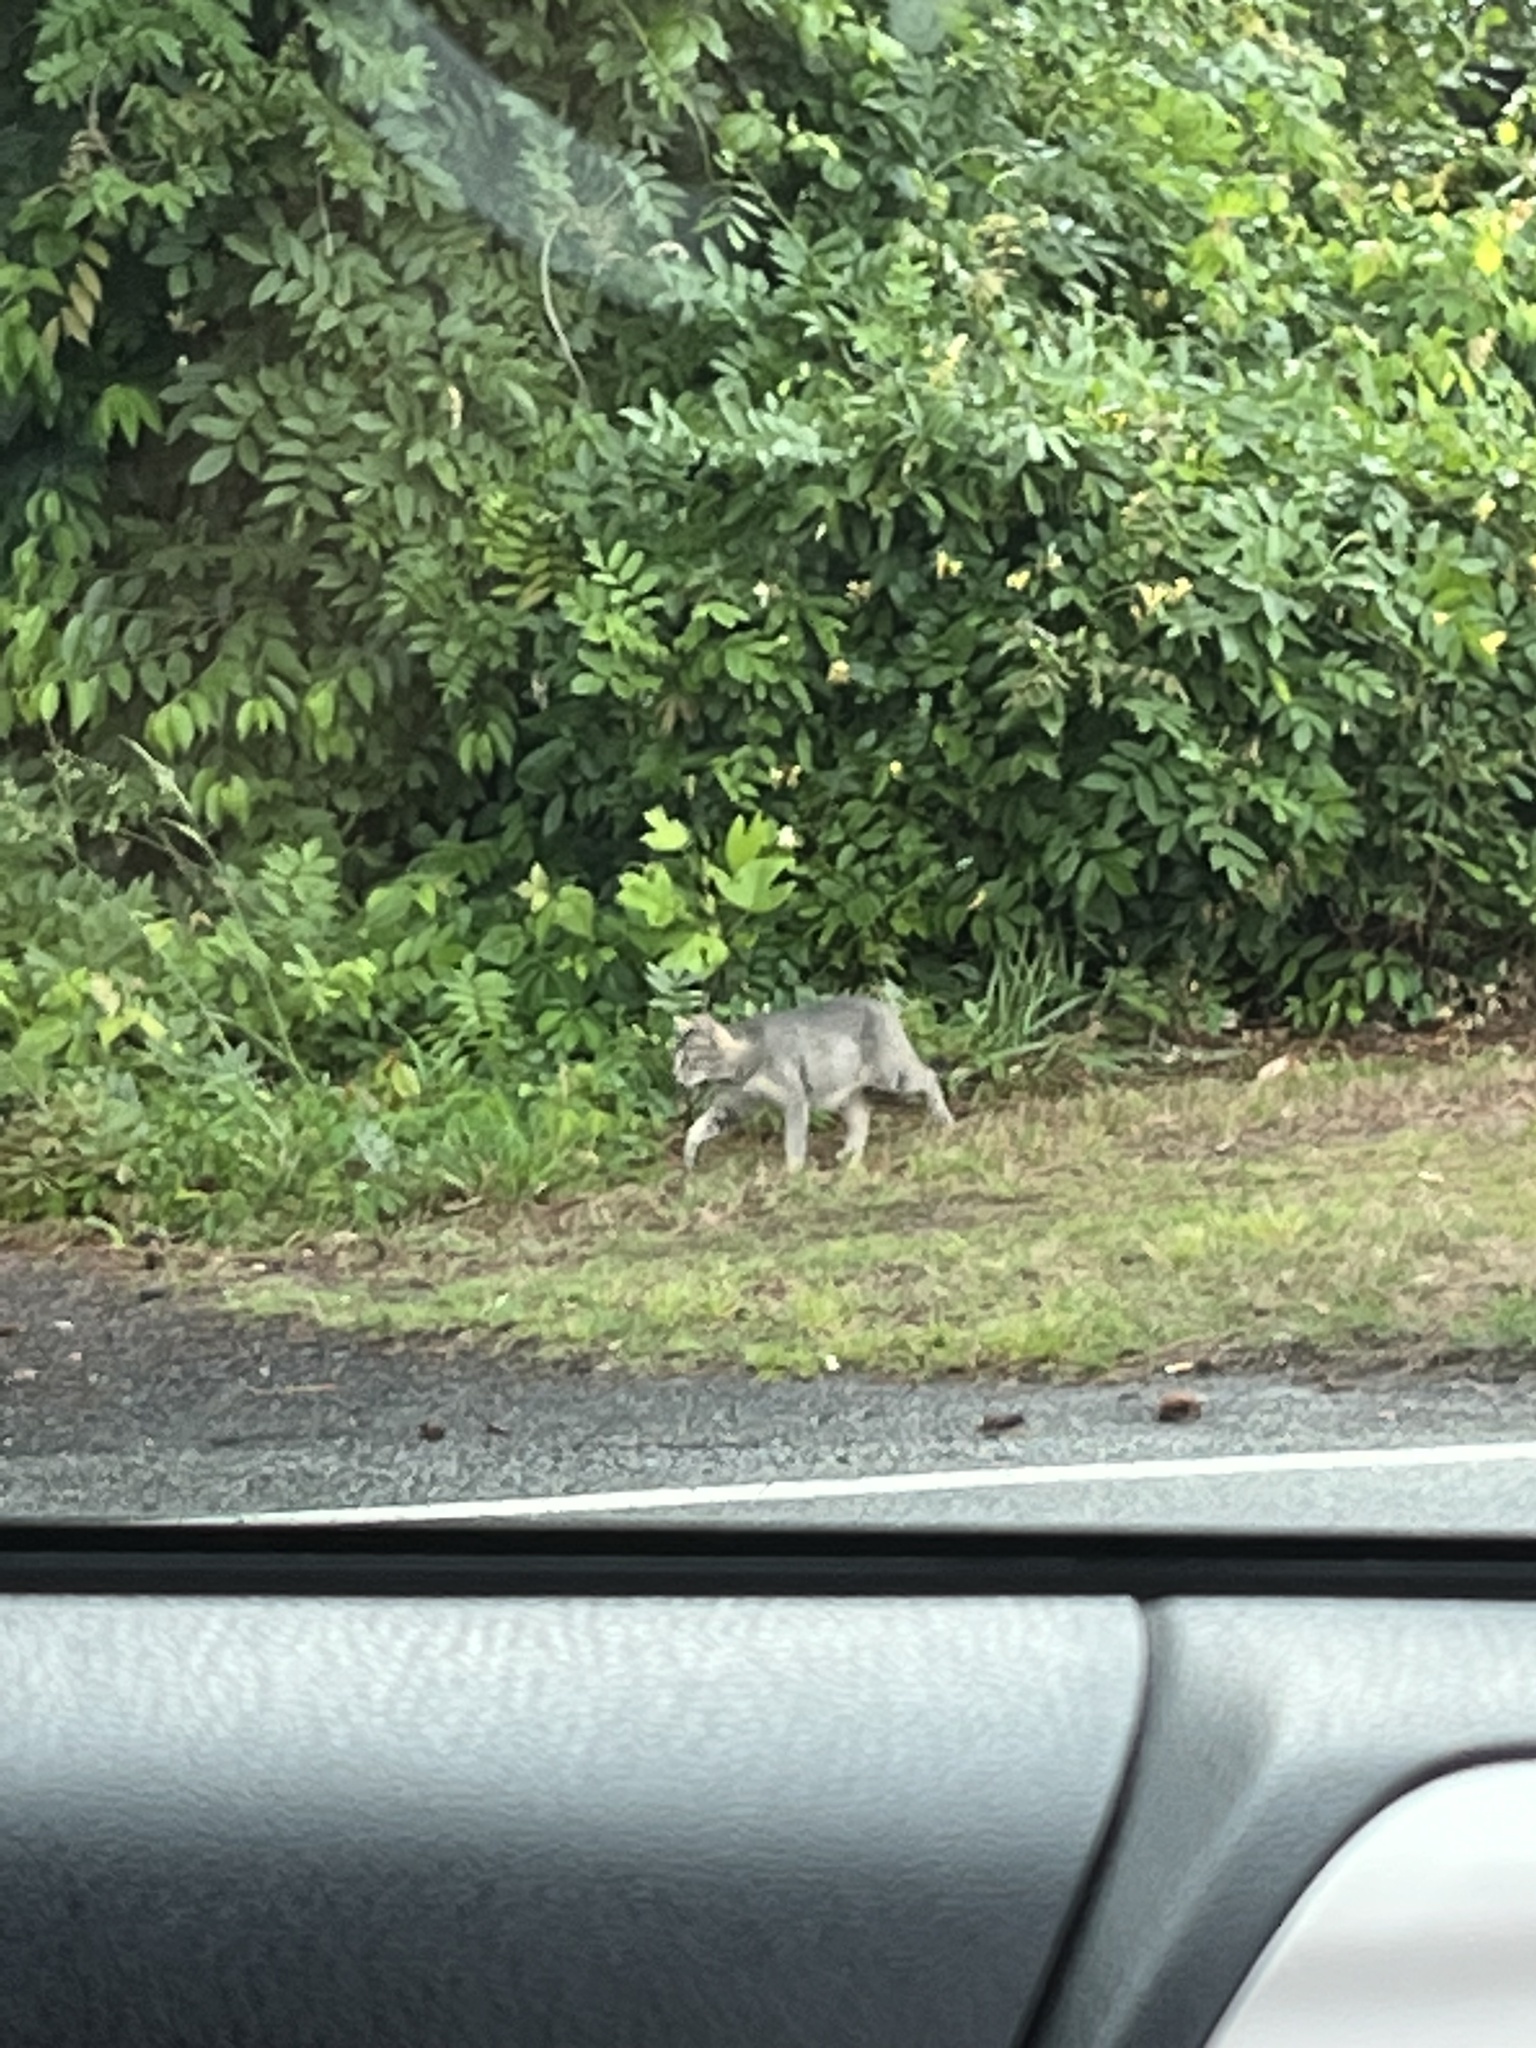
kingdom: Animalia
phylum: Chordata
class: Mammalia
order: Carnivora
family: Felidae
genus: Felis
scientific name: Felis catus
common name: Domestic cat
